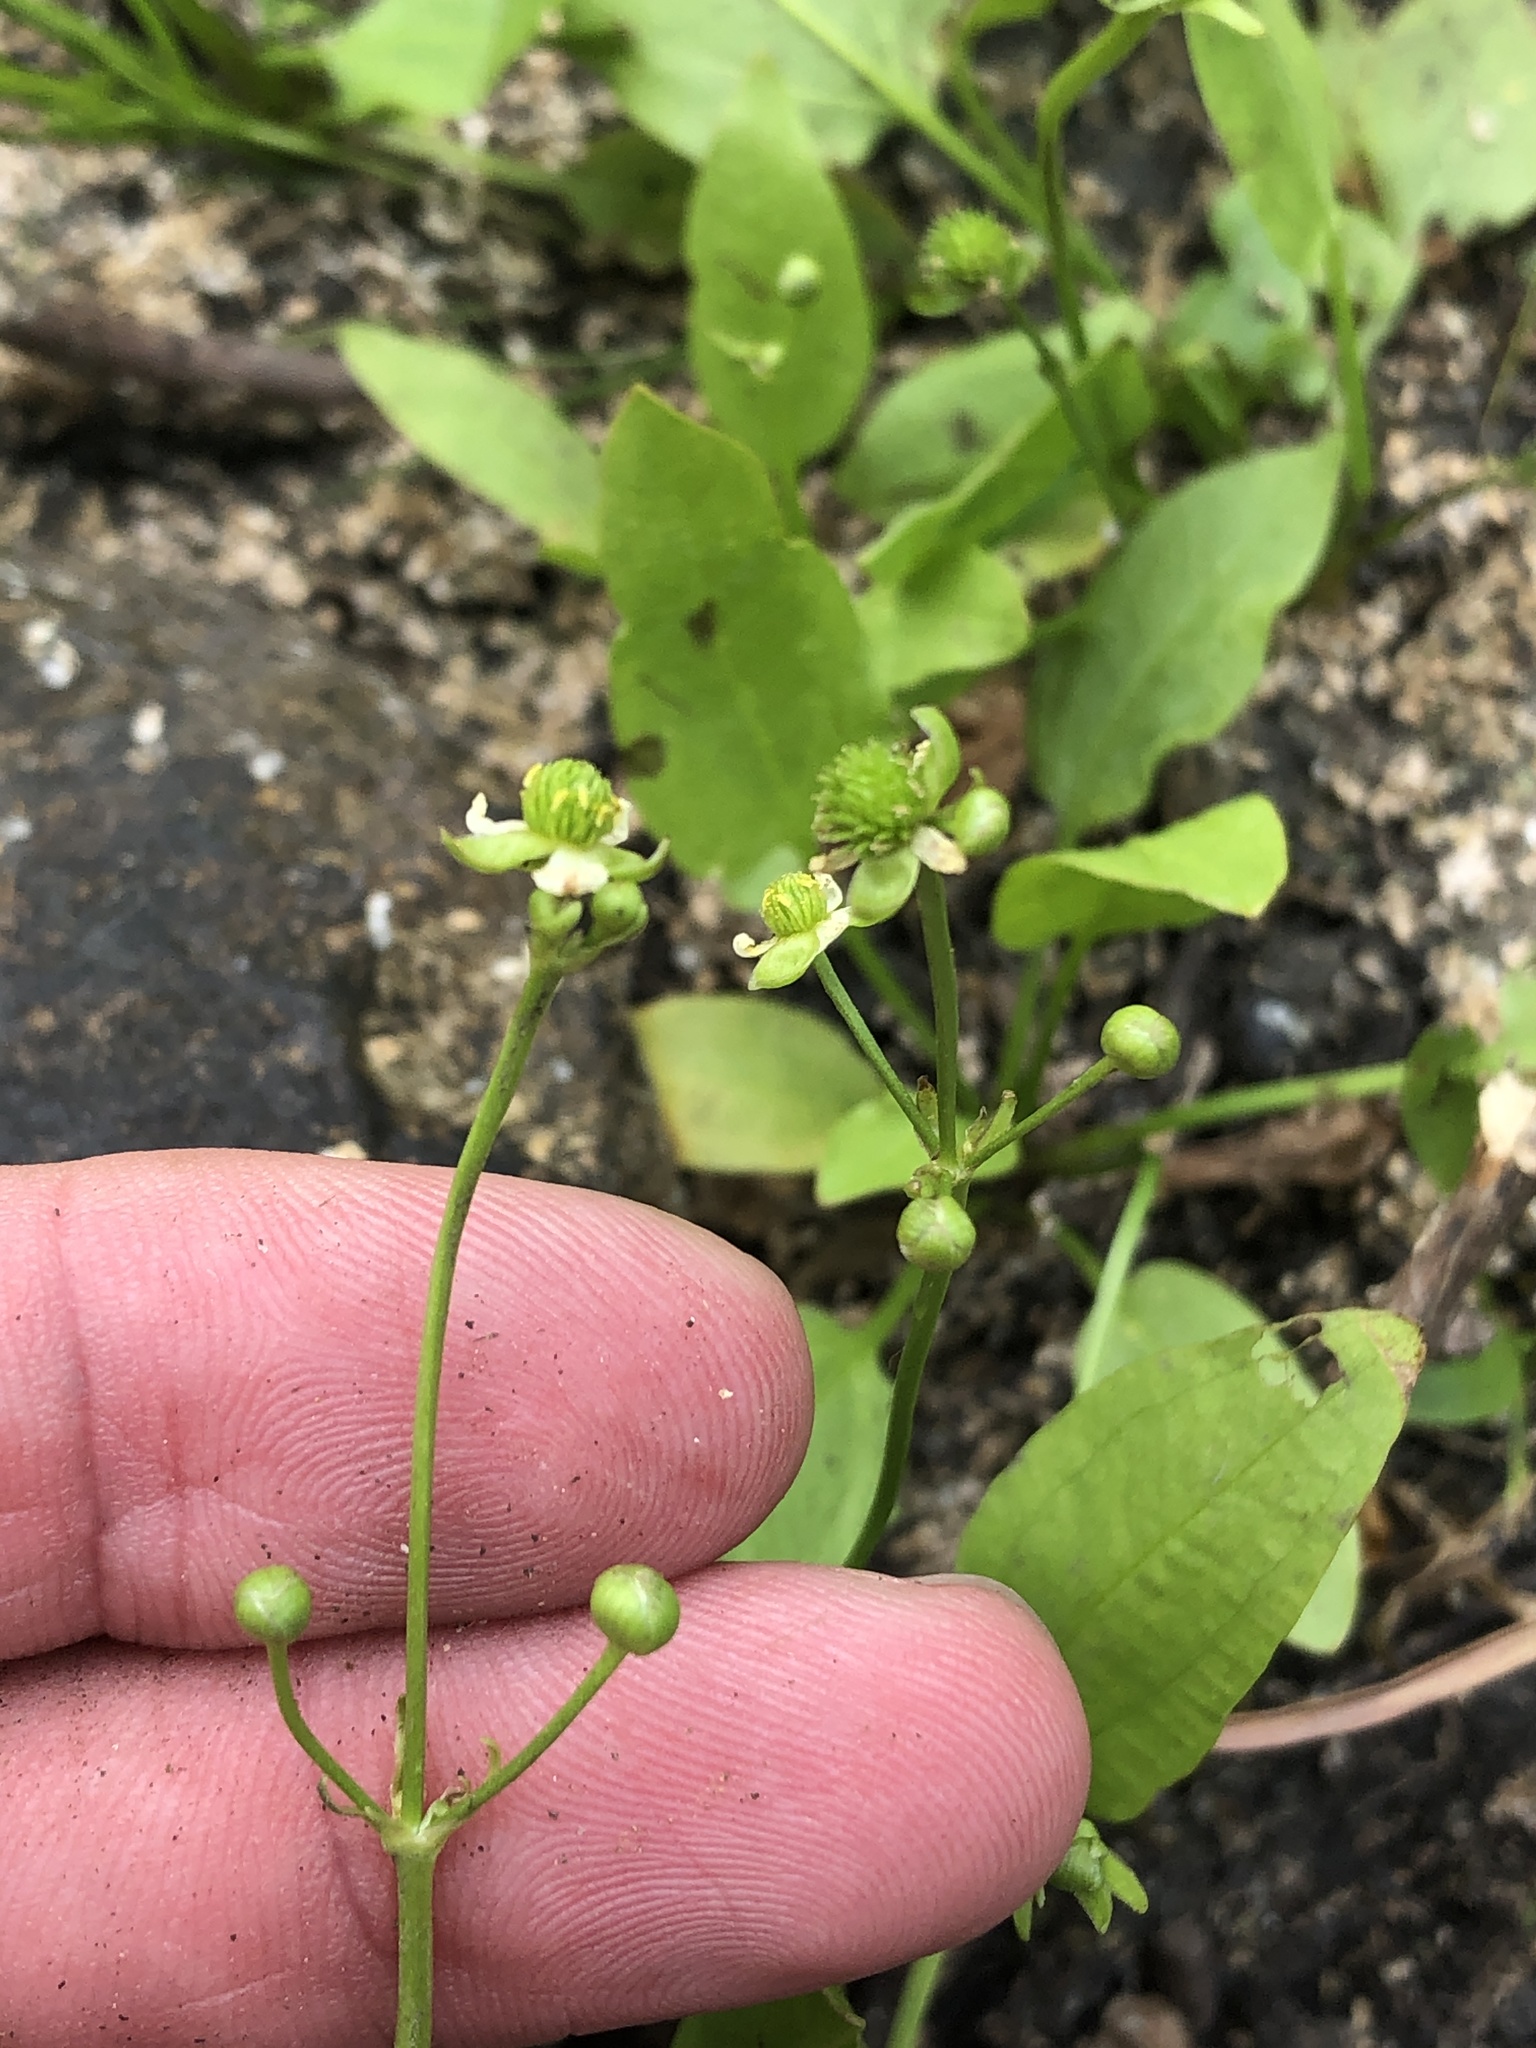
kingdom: Plantae
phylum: Tracheophyta
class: Liliopsida
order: Alismatales
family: Alismataceae
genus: Echinodorus
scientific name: Echinodorus berteroi
